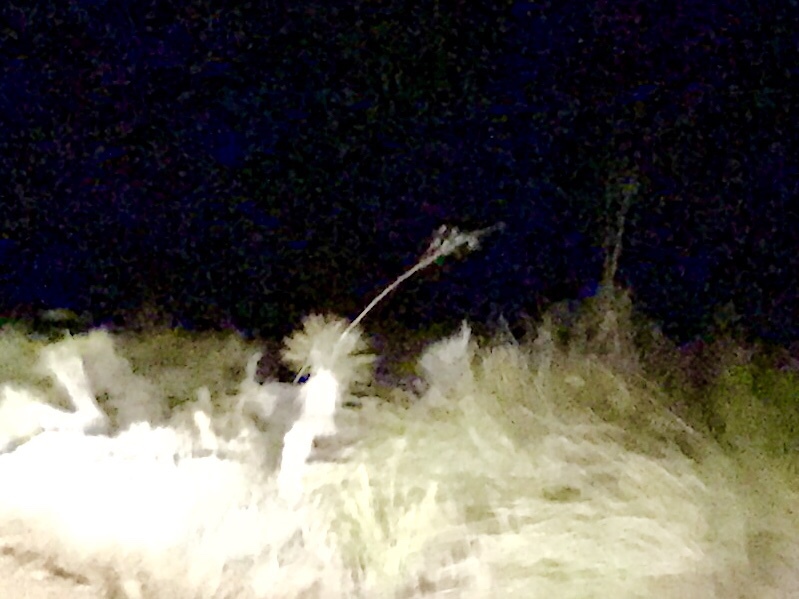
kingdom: Plantae
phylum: Tracheophyta
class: Liliopsida
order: Asparagales
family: Asparagaceae
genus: Yucca
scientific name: Yucca elata
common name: Palmella
